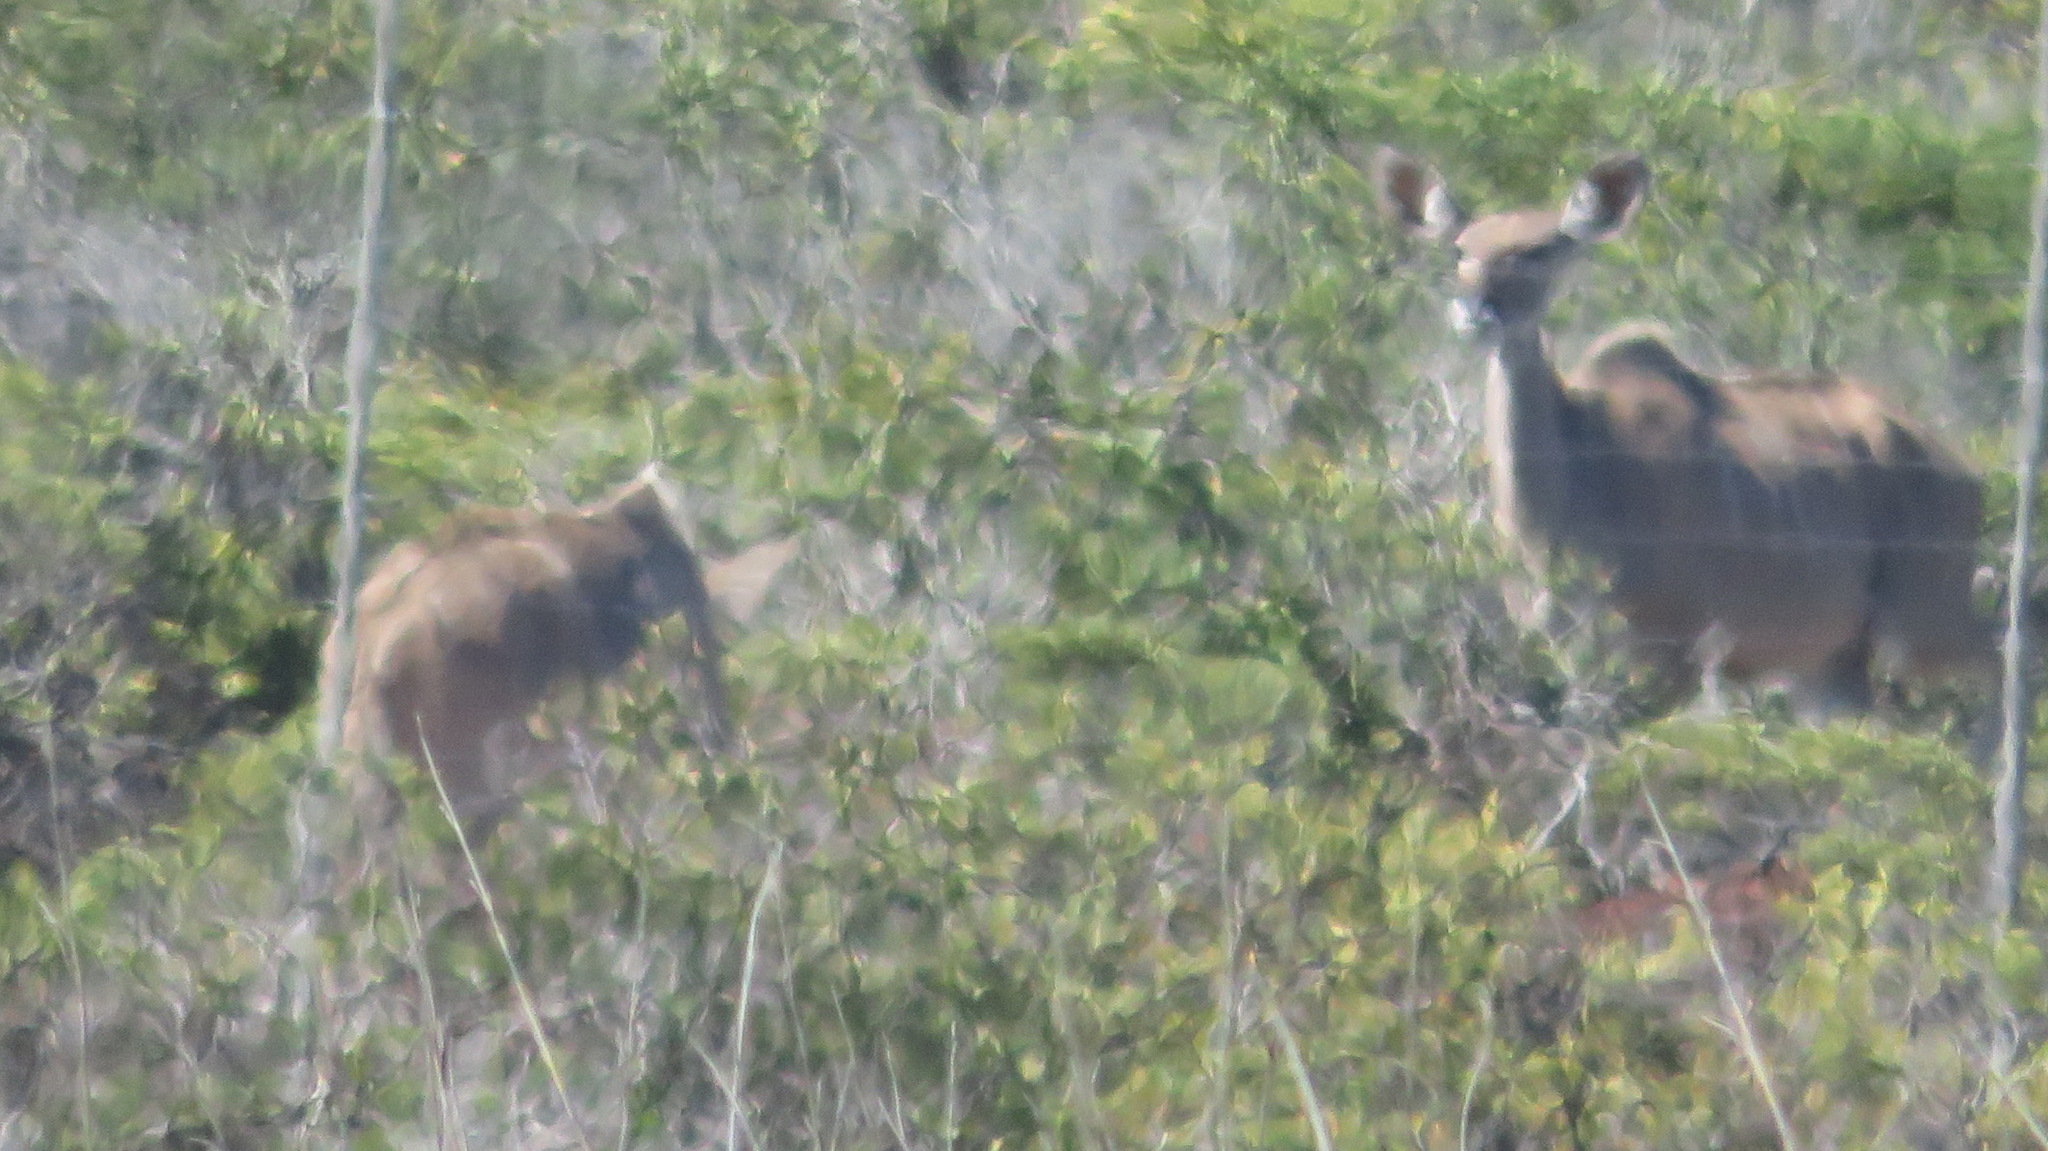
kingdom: Animalia
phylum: Chordata
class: Mammalia
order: Artiodactyla
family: Bovidae
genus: Tragelaphus
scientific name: Tragelaphus strepsiceros
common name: Greater kudu
